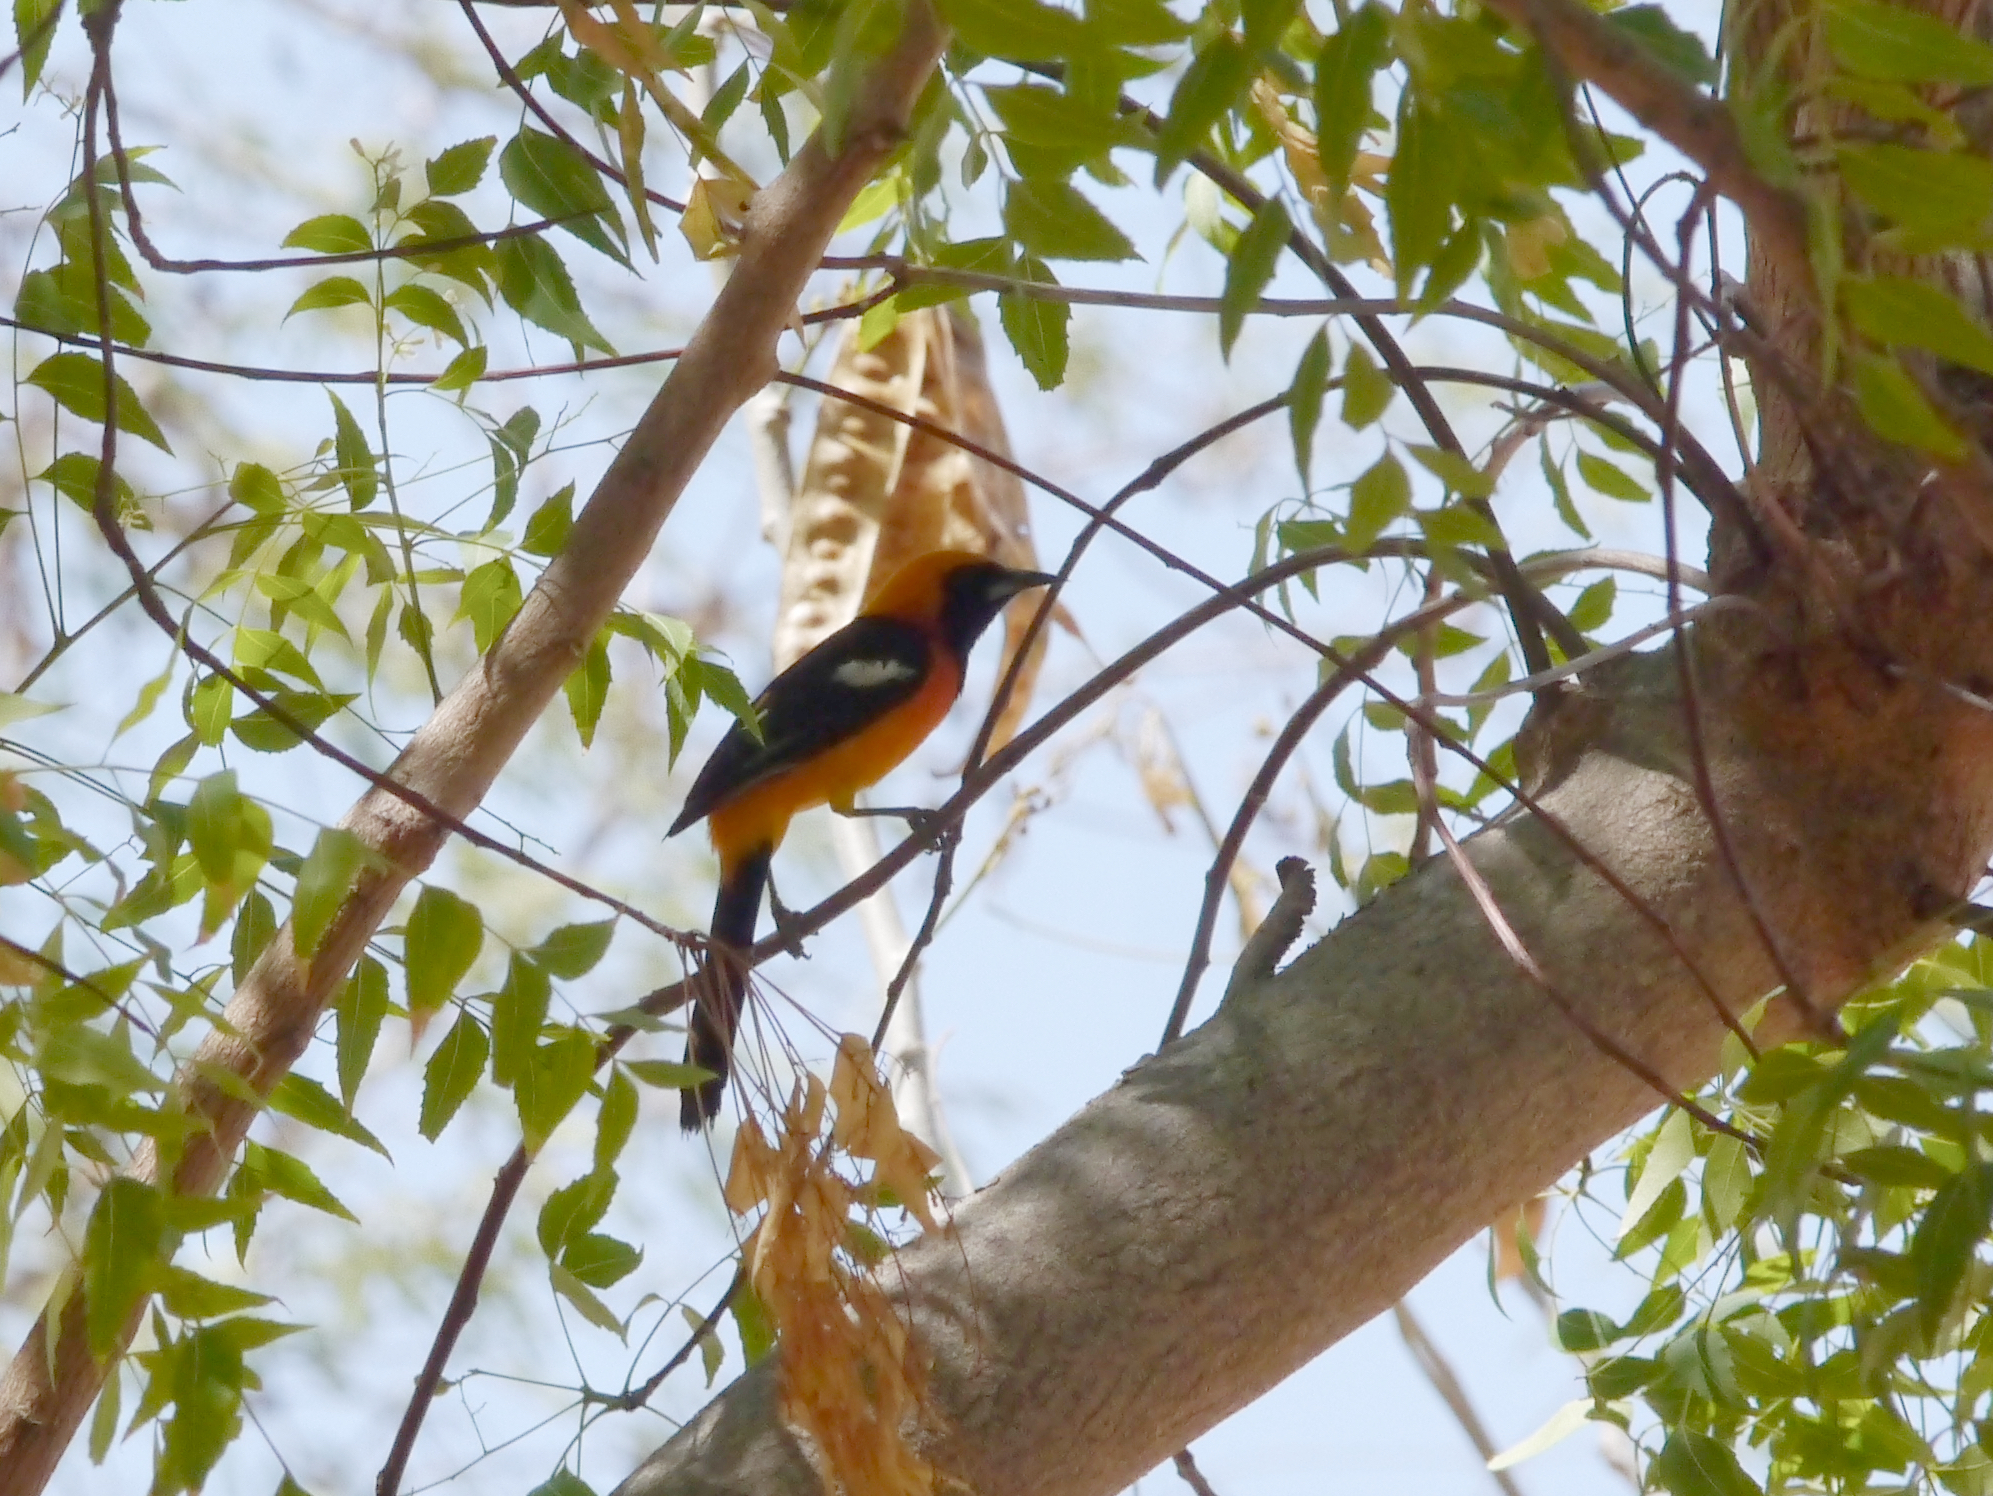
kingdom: Animalia
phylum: Chordata
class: Aves
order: Passeriformes
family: Icteridae
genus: Icterus
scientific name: Icterus cucullatus
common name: Hooded oriole
